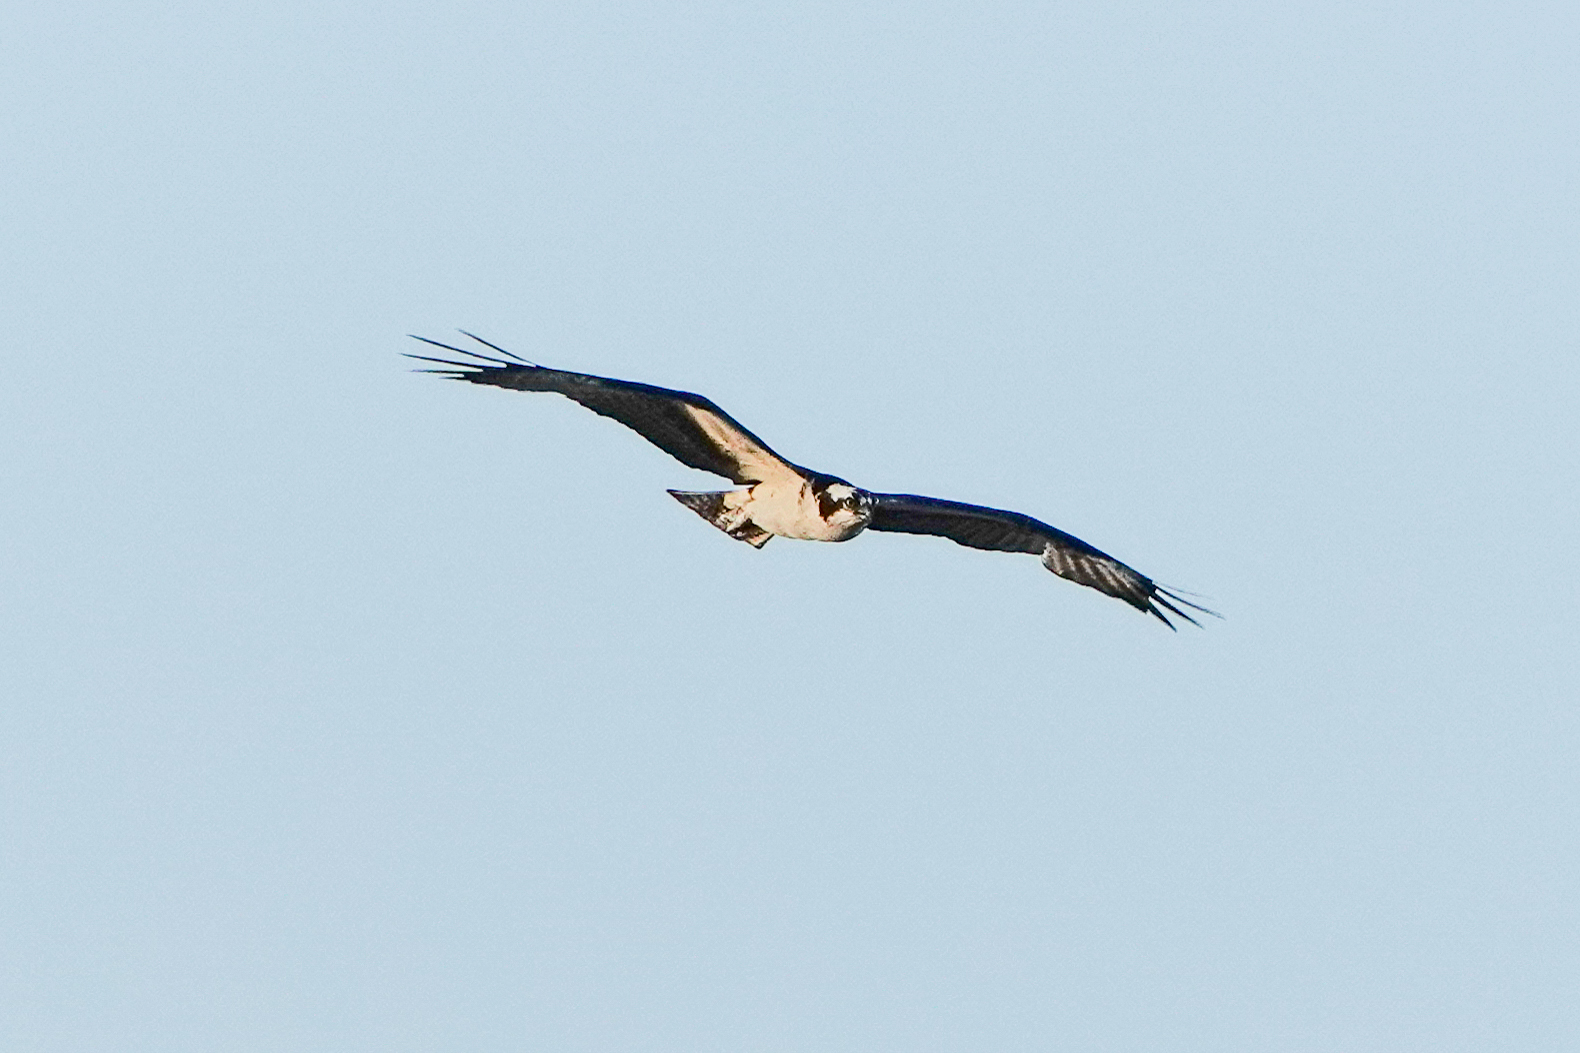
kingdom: Animalia
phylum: Chordata
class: Aves
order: Accipitriformes
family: Pandionidae
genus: Pandion
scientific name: Pandion haliaetus
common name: Osprey
